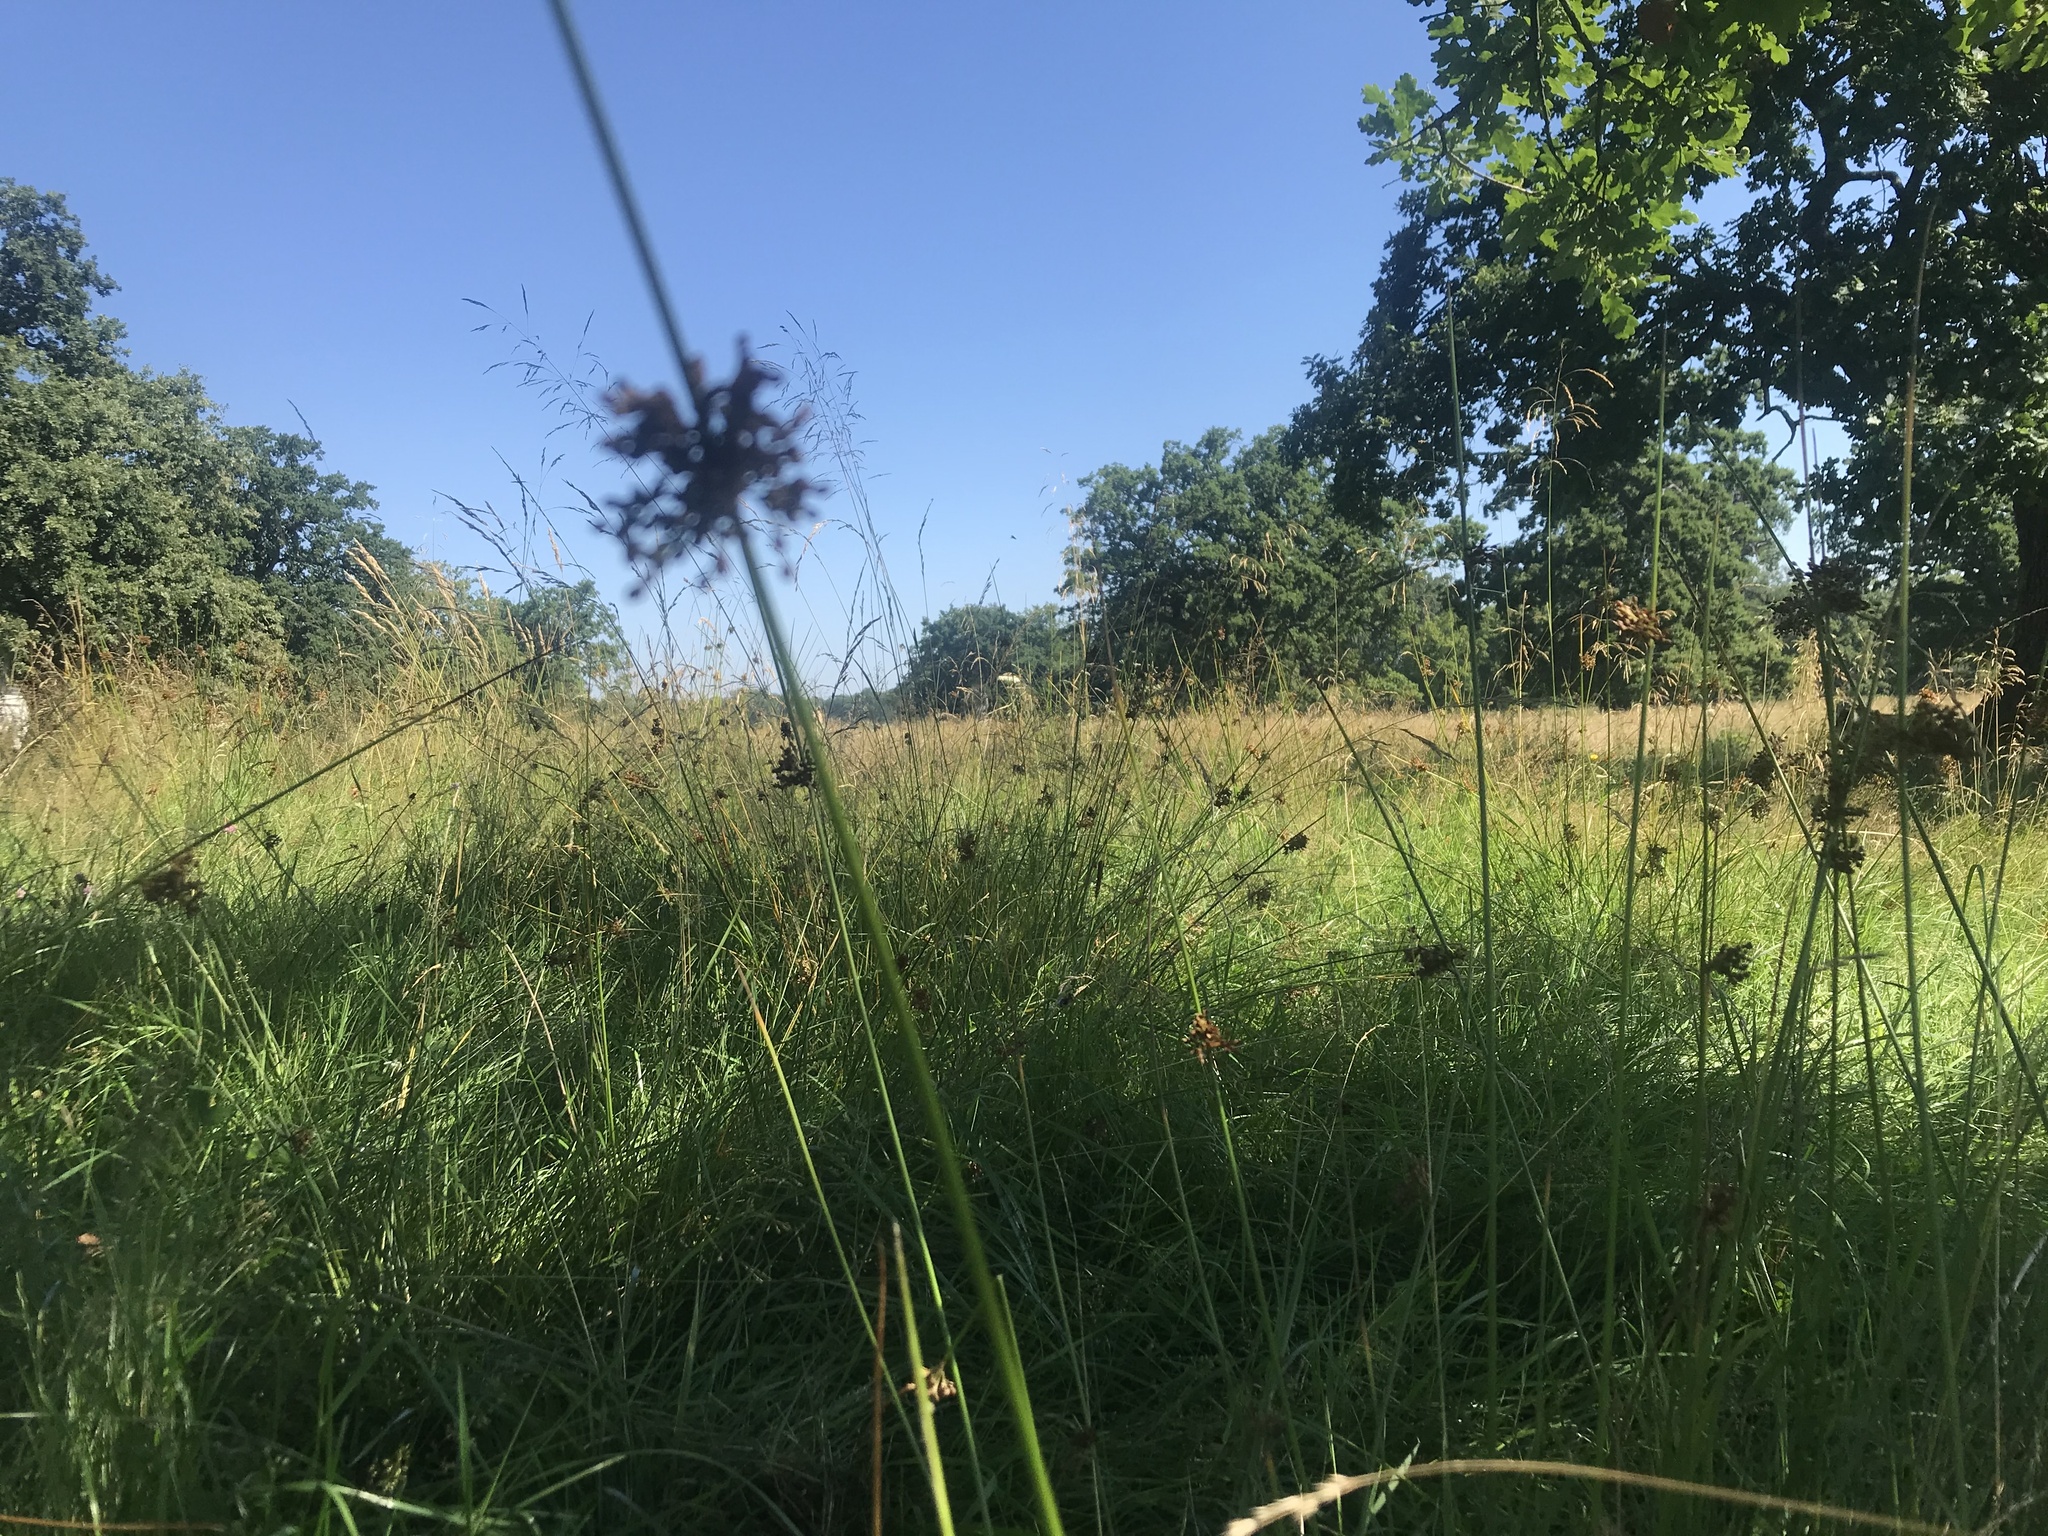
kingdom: Plantae
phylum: Tracheophyta
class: Liliopsida
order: Poales
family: Juncaceae
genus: Juncus
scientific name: Juncus effusus
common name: Soft rush
